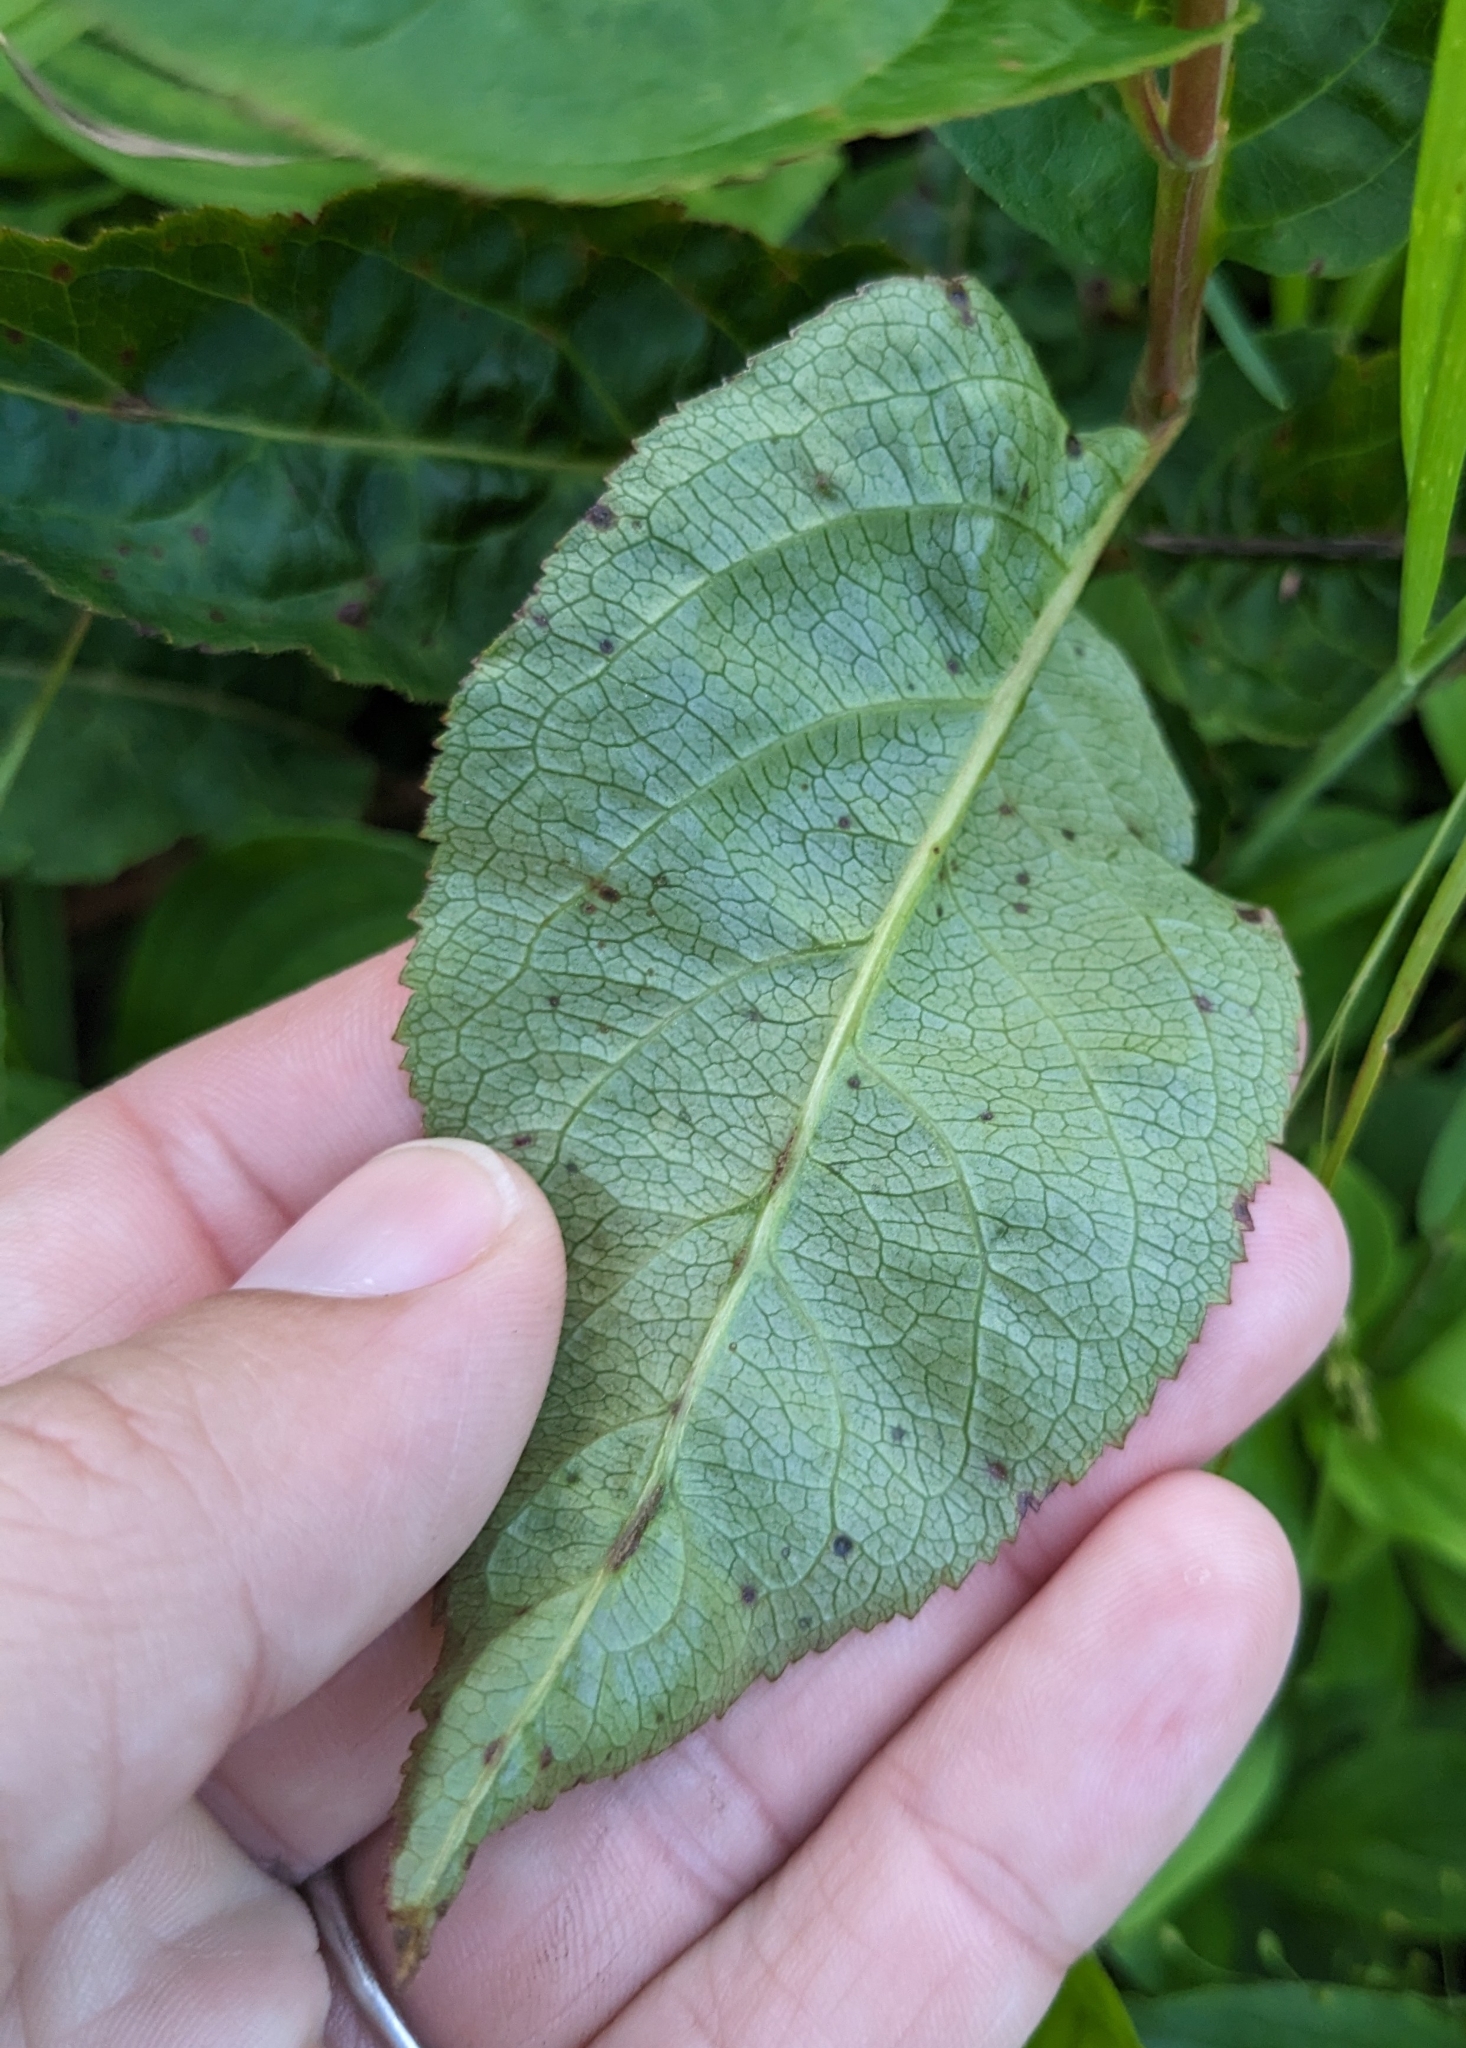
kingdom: Plantae
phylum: Tracheophyta
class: Magnoliopsida
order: Dipsacales
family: Caprifoliaceae
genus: Diervilla
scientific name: Diervilla lonicera
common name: Bush-honeysuckle
